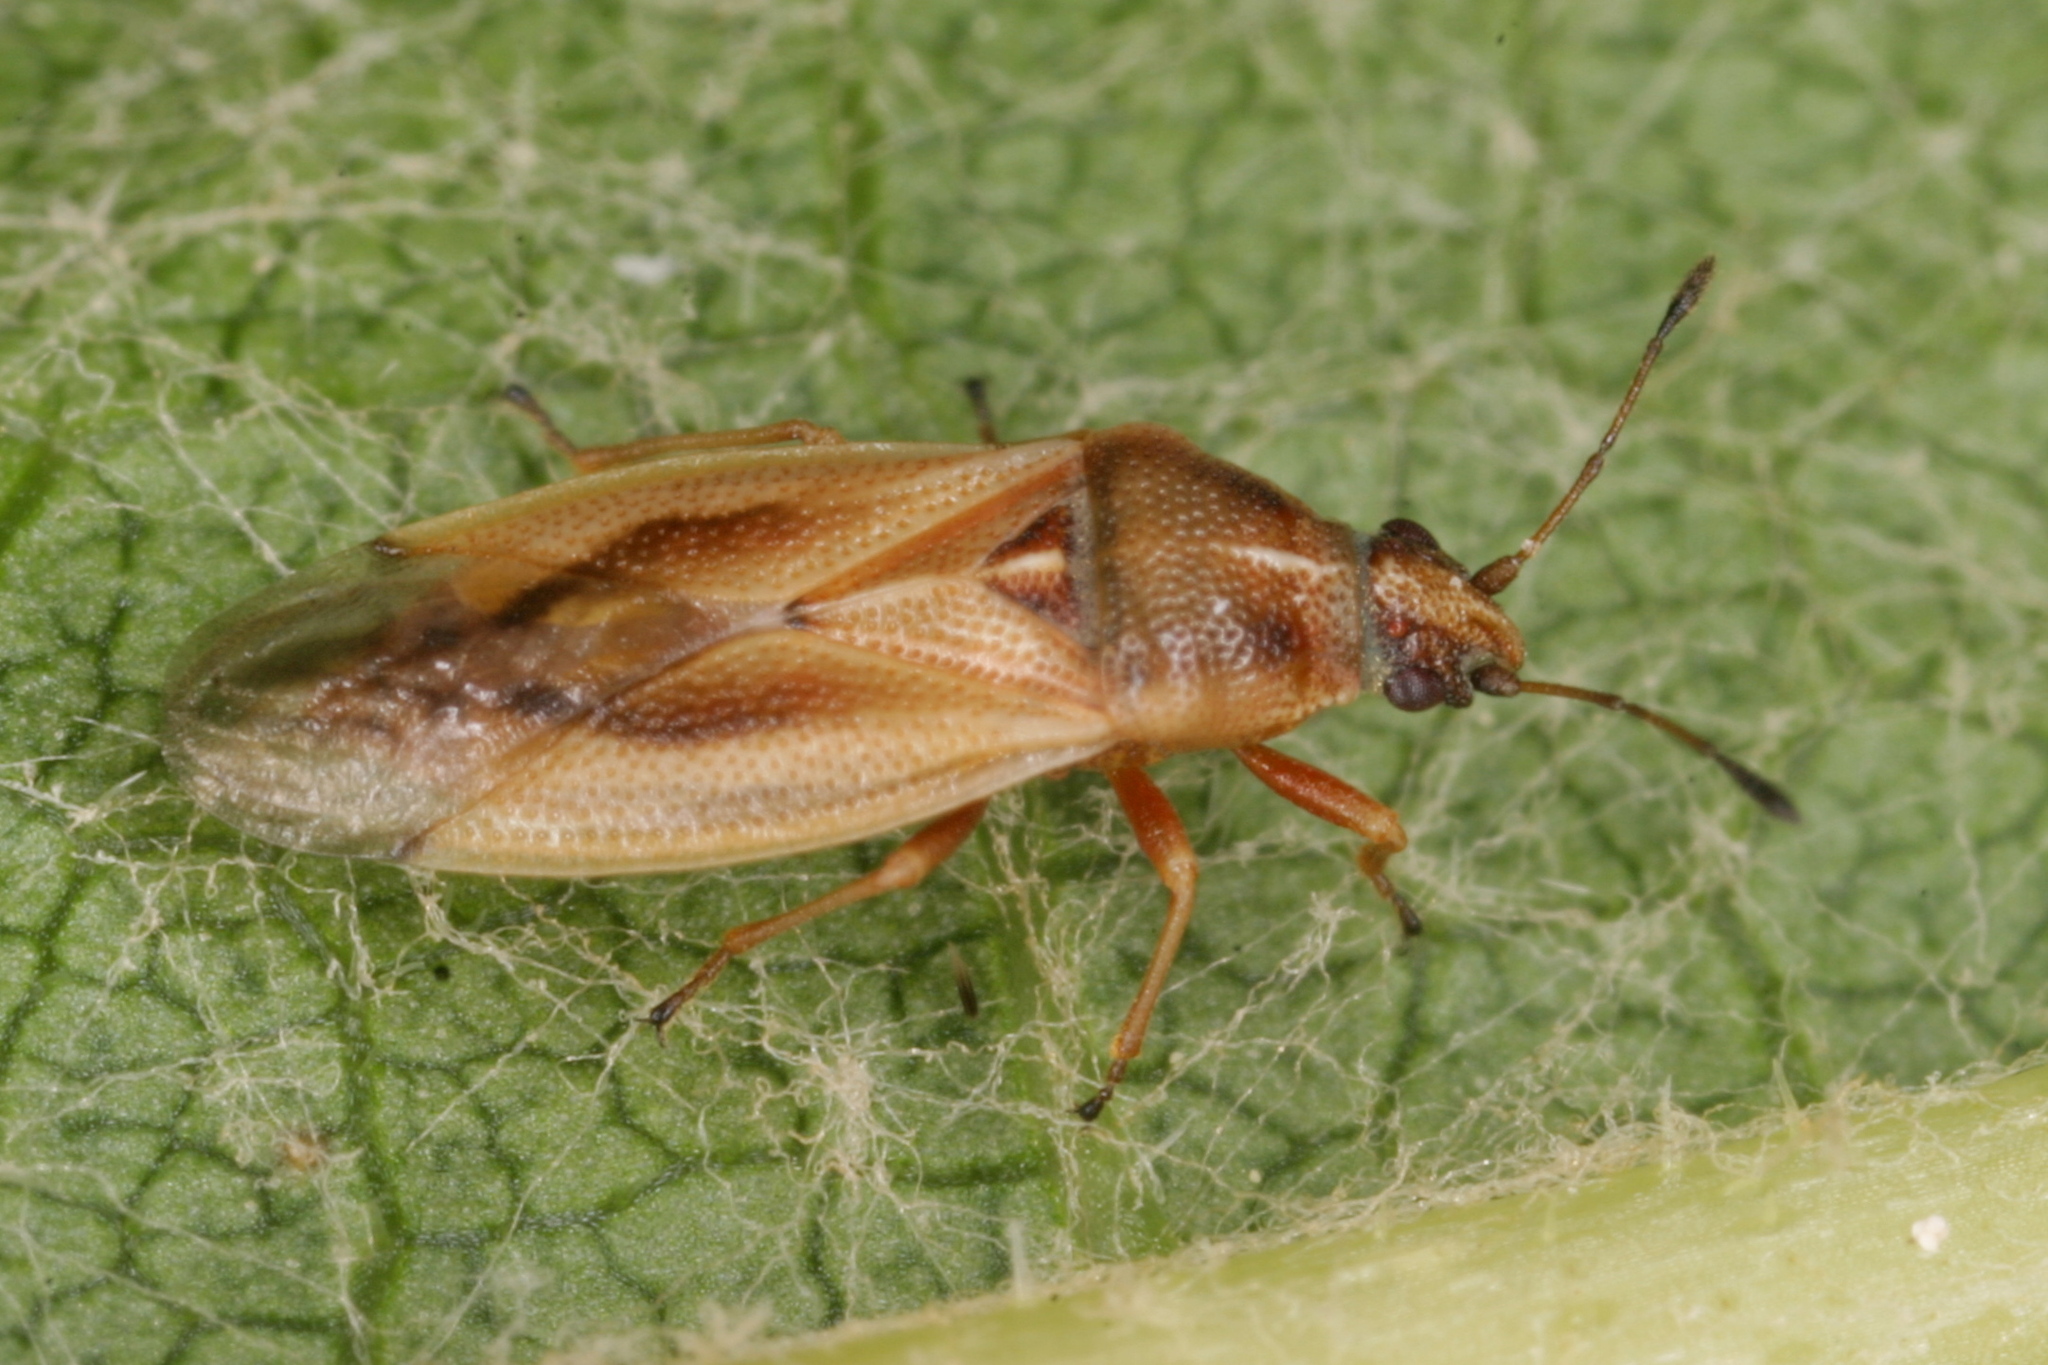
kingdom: Animalia
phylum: Arthropoda
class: Insecta
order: Hemiptera
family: Cymidae
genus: Cymus
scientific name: Cymus glandicolor
